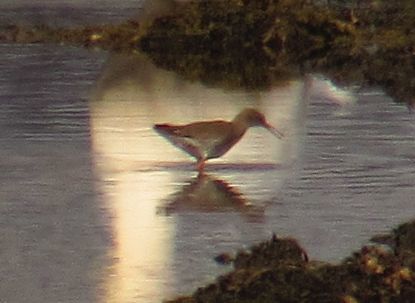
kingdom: Animalia
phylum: Chordata
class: Aves
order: Charadriiformes
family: Scolopacidae
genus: Tringa
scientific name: Tringa totanus
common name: Common redshank
